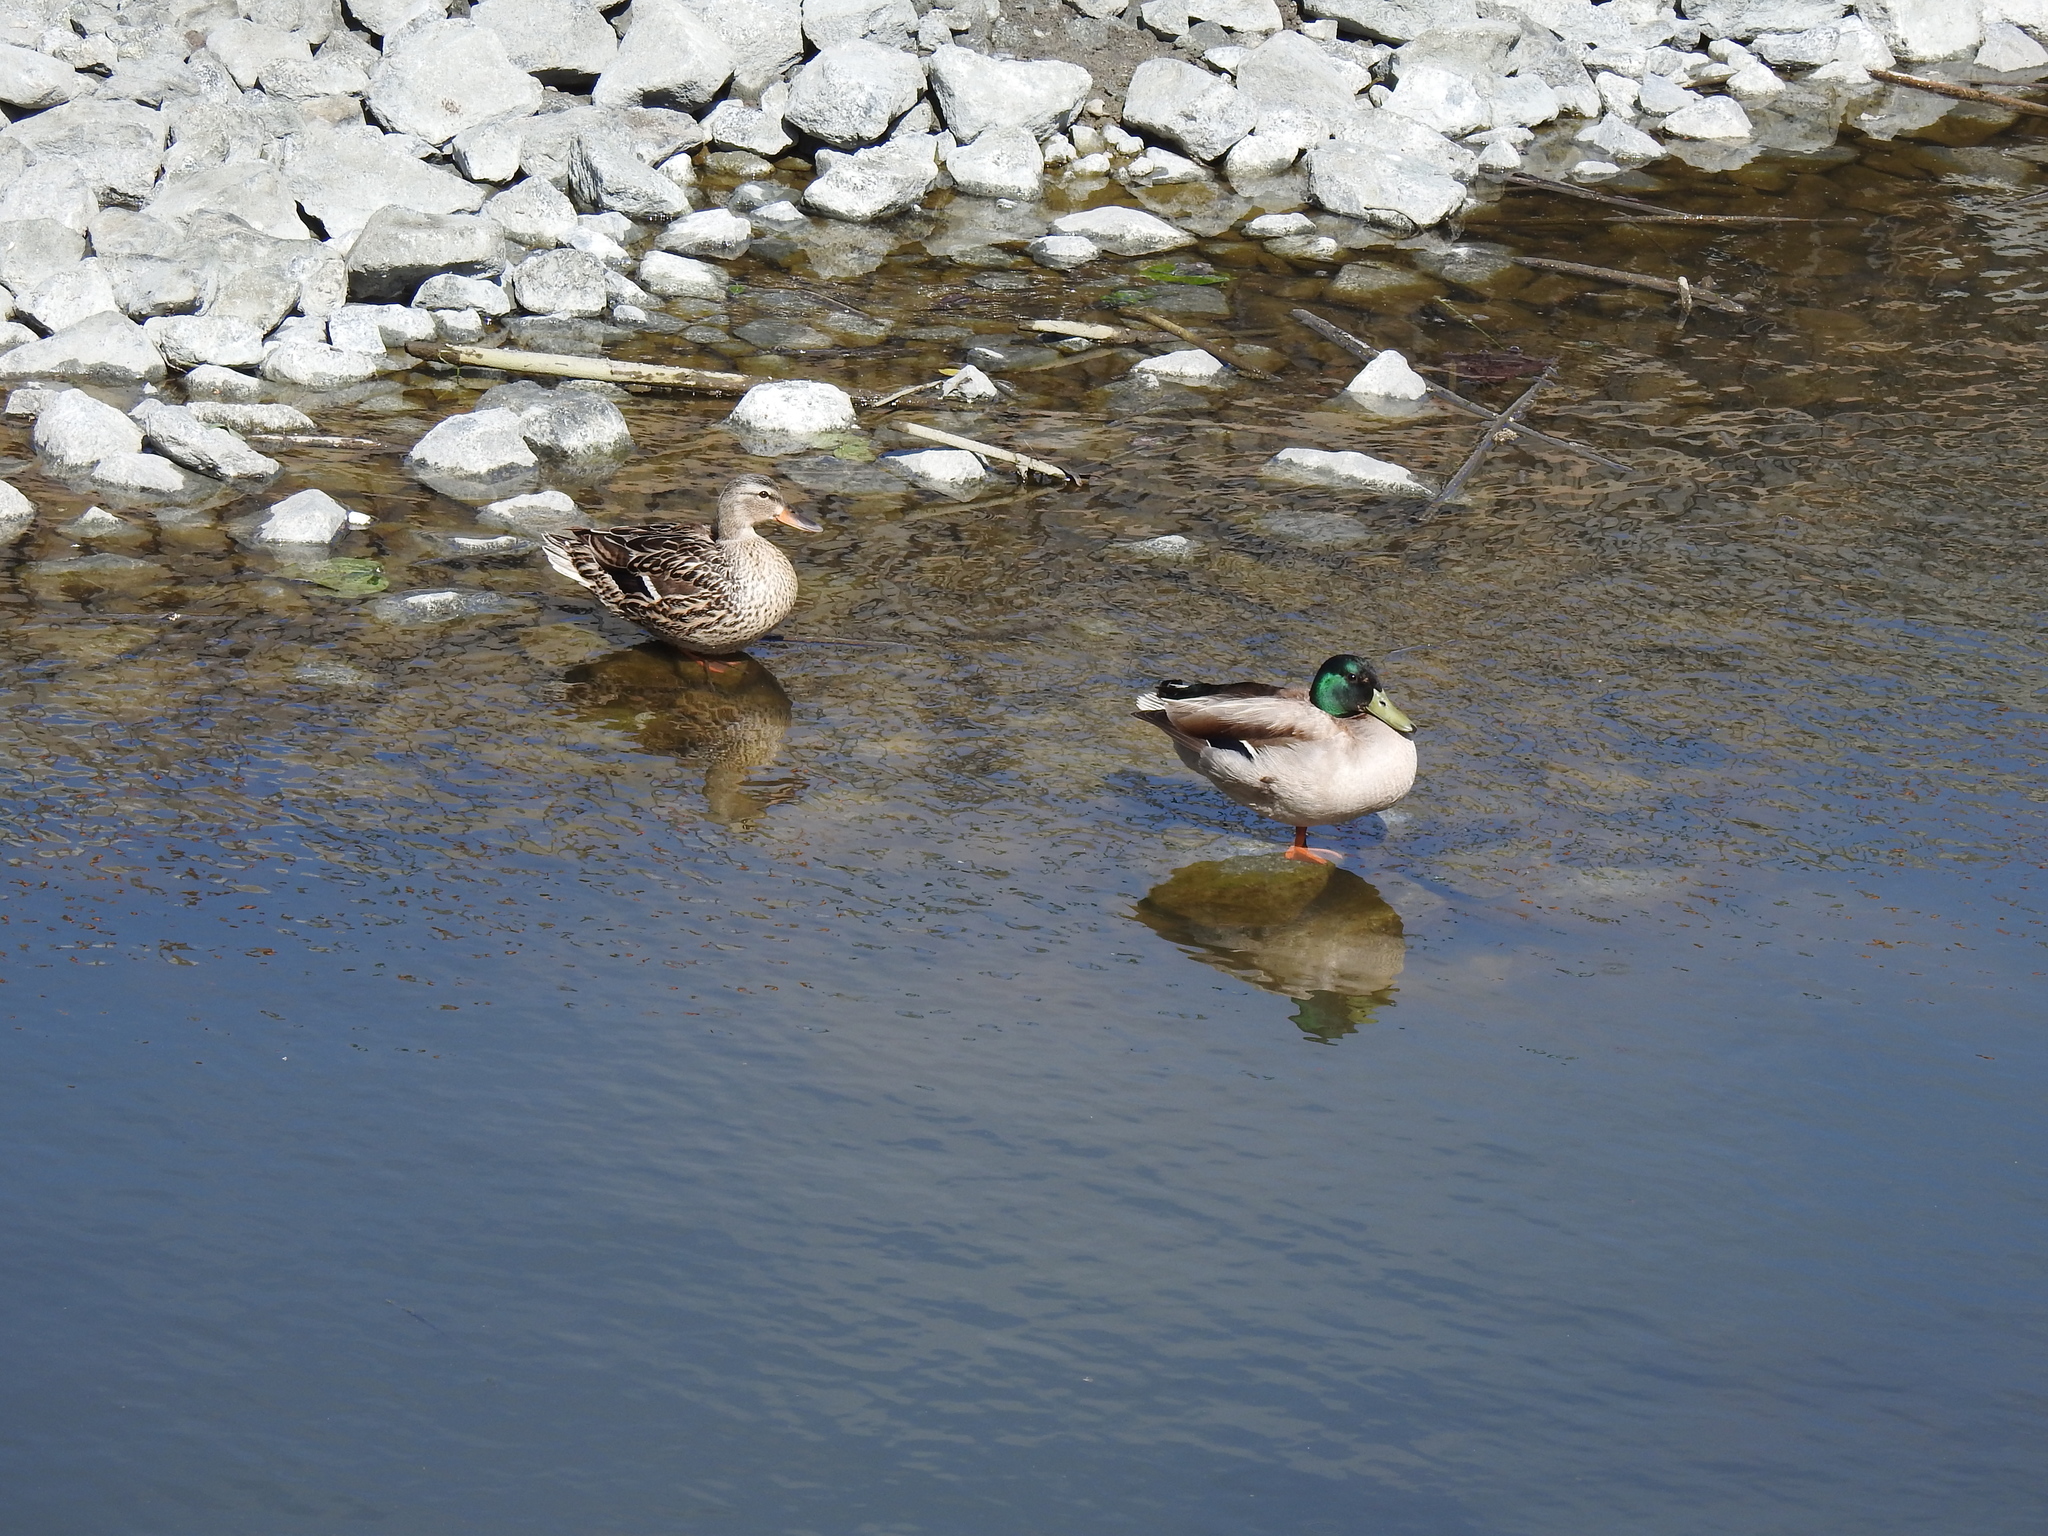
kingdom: Animalia
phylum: Chordata
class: Aves
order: Anseriformes
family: Anatidae
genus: Anas
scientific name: Anas platyrhynchos
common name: Mallard
